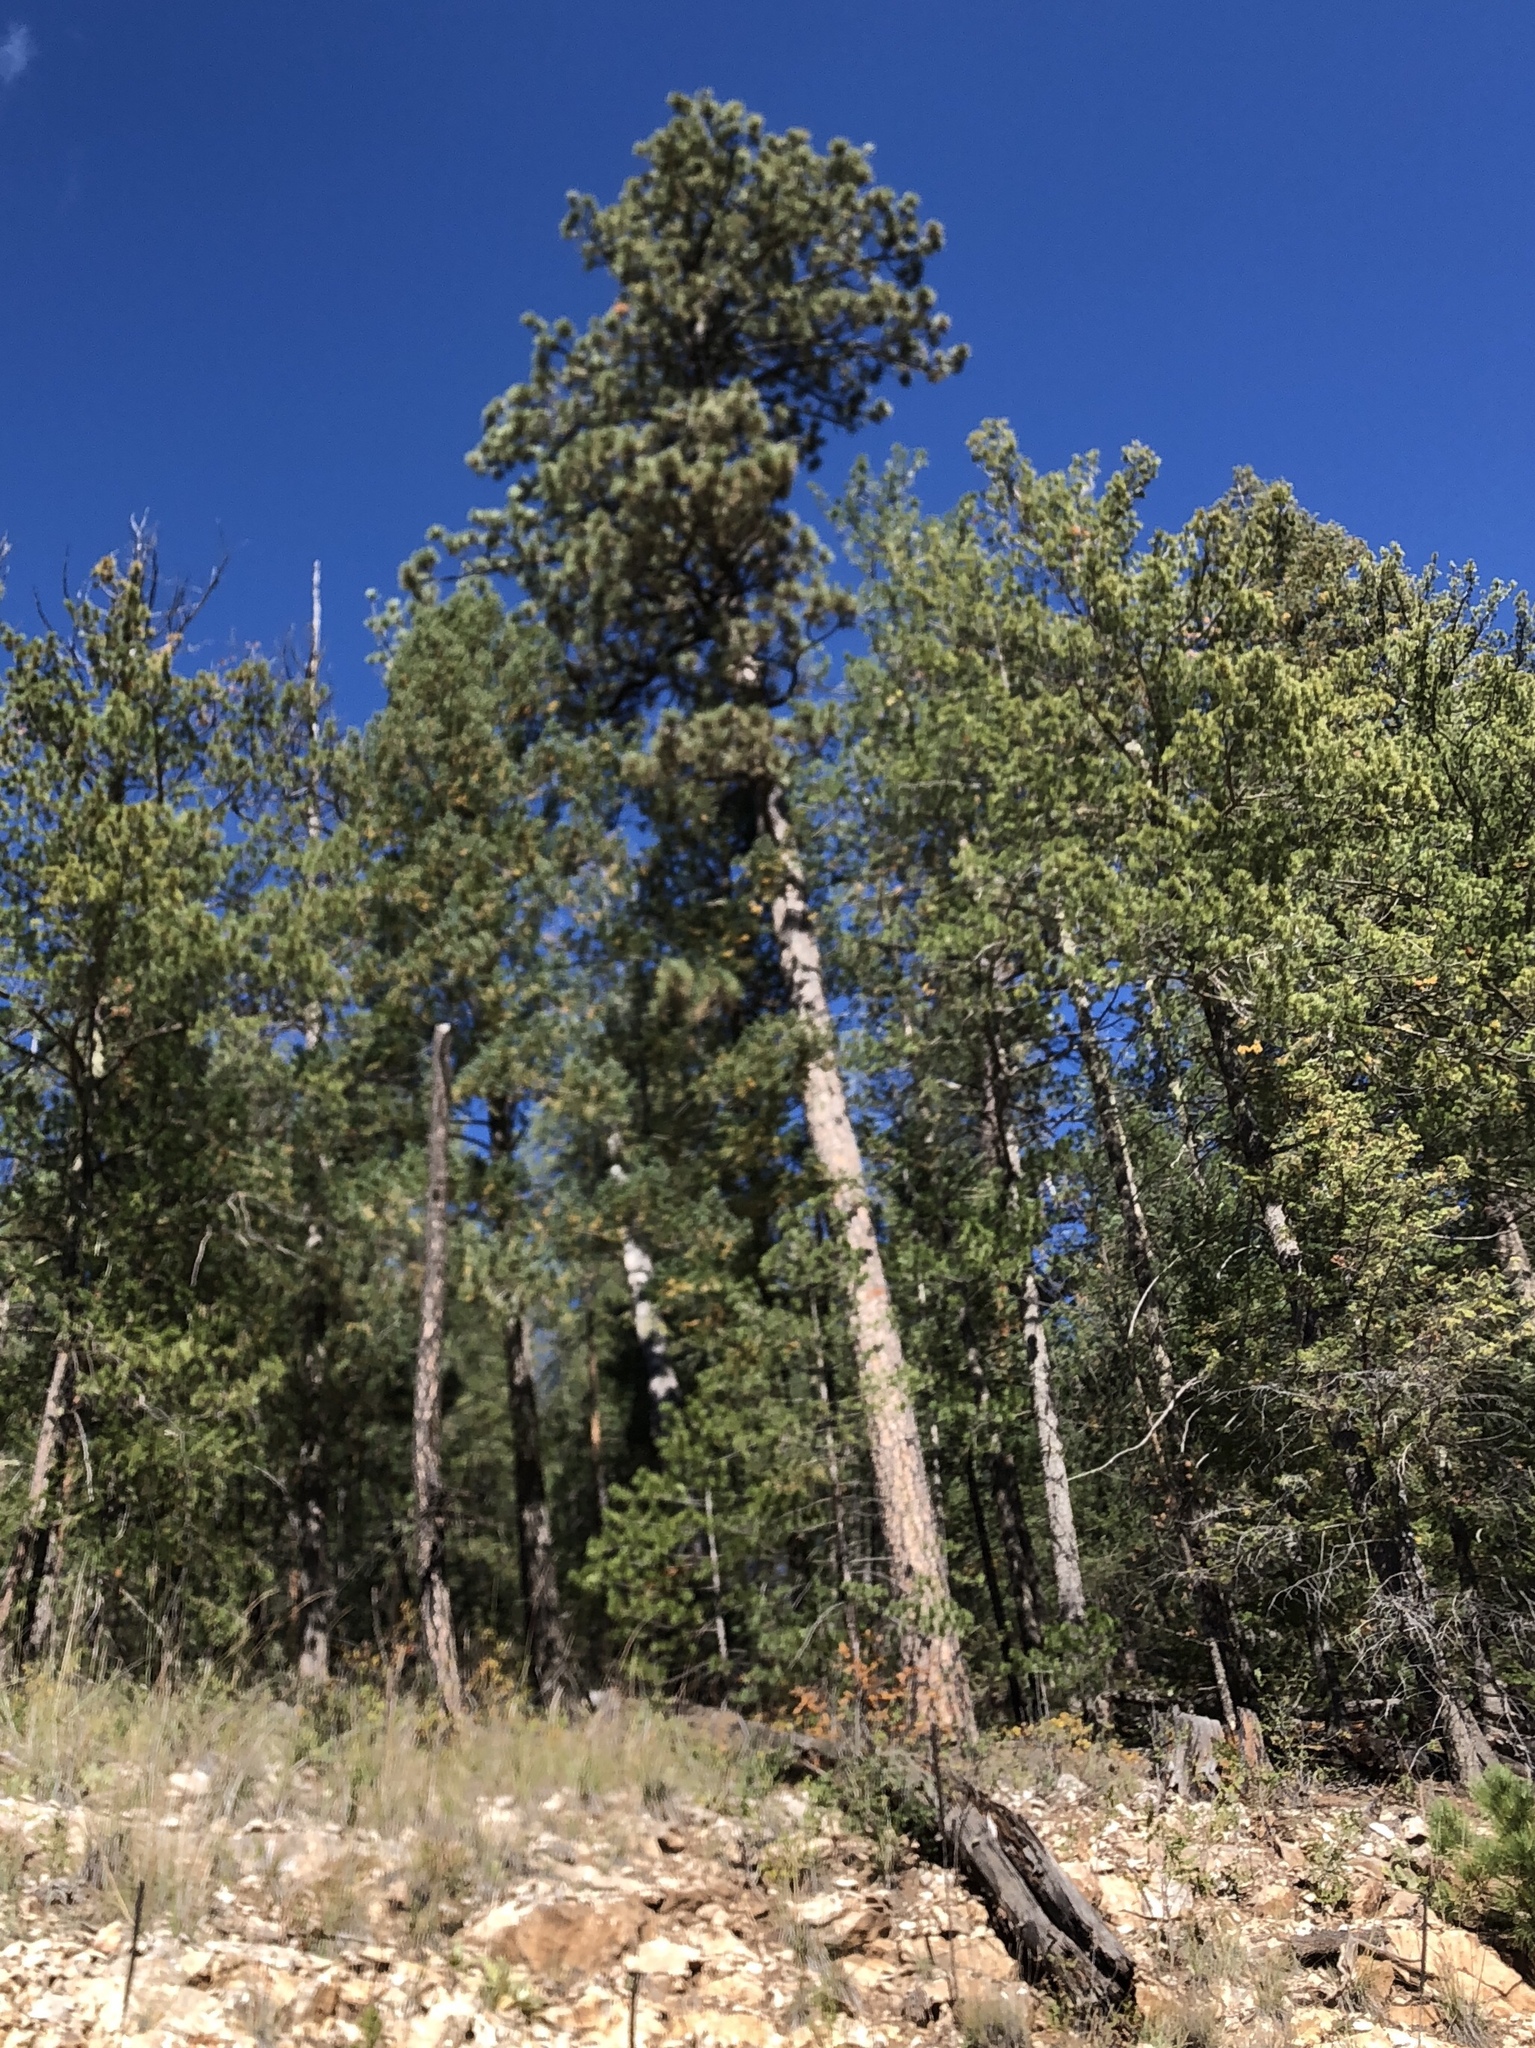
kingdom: Plantae
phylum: Tracheophyta
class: Pinopsida
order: Pinales
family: Pinaceae
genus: Pinus
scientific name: Pinus ponderosa
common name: Western yellow-pine
